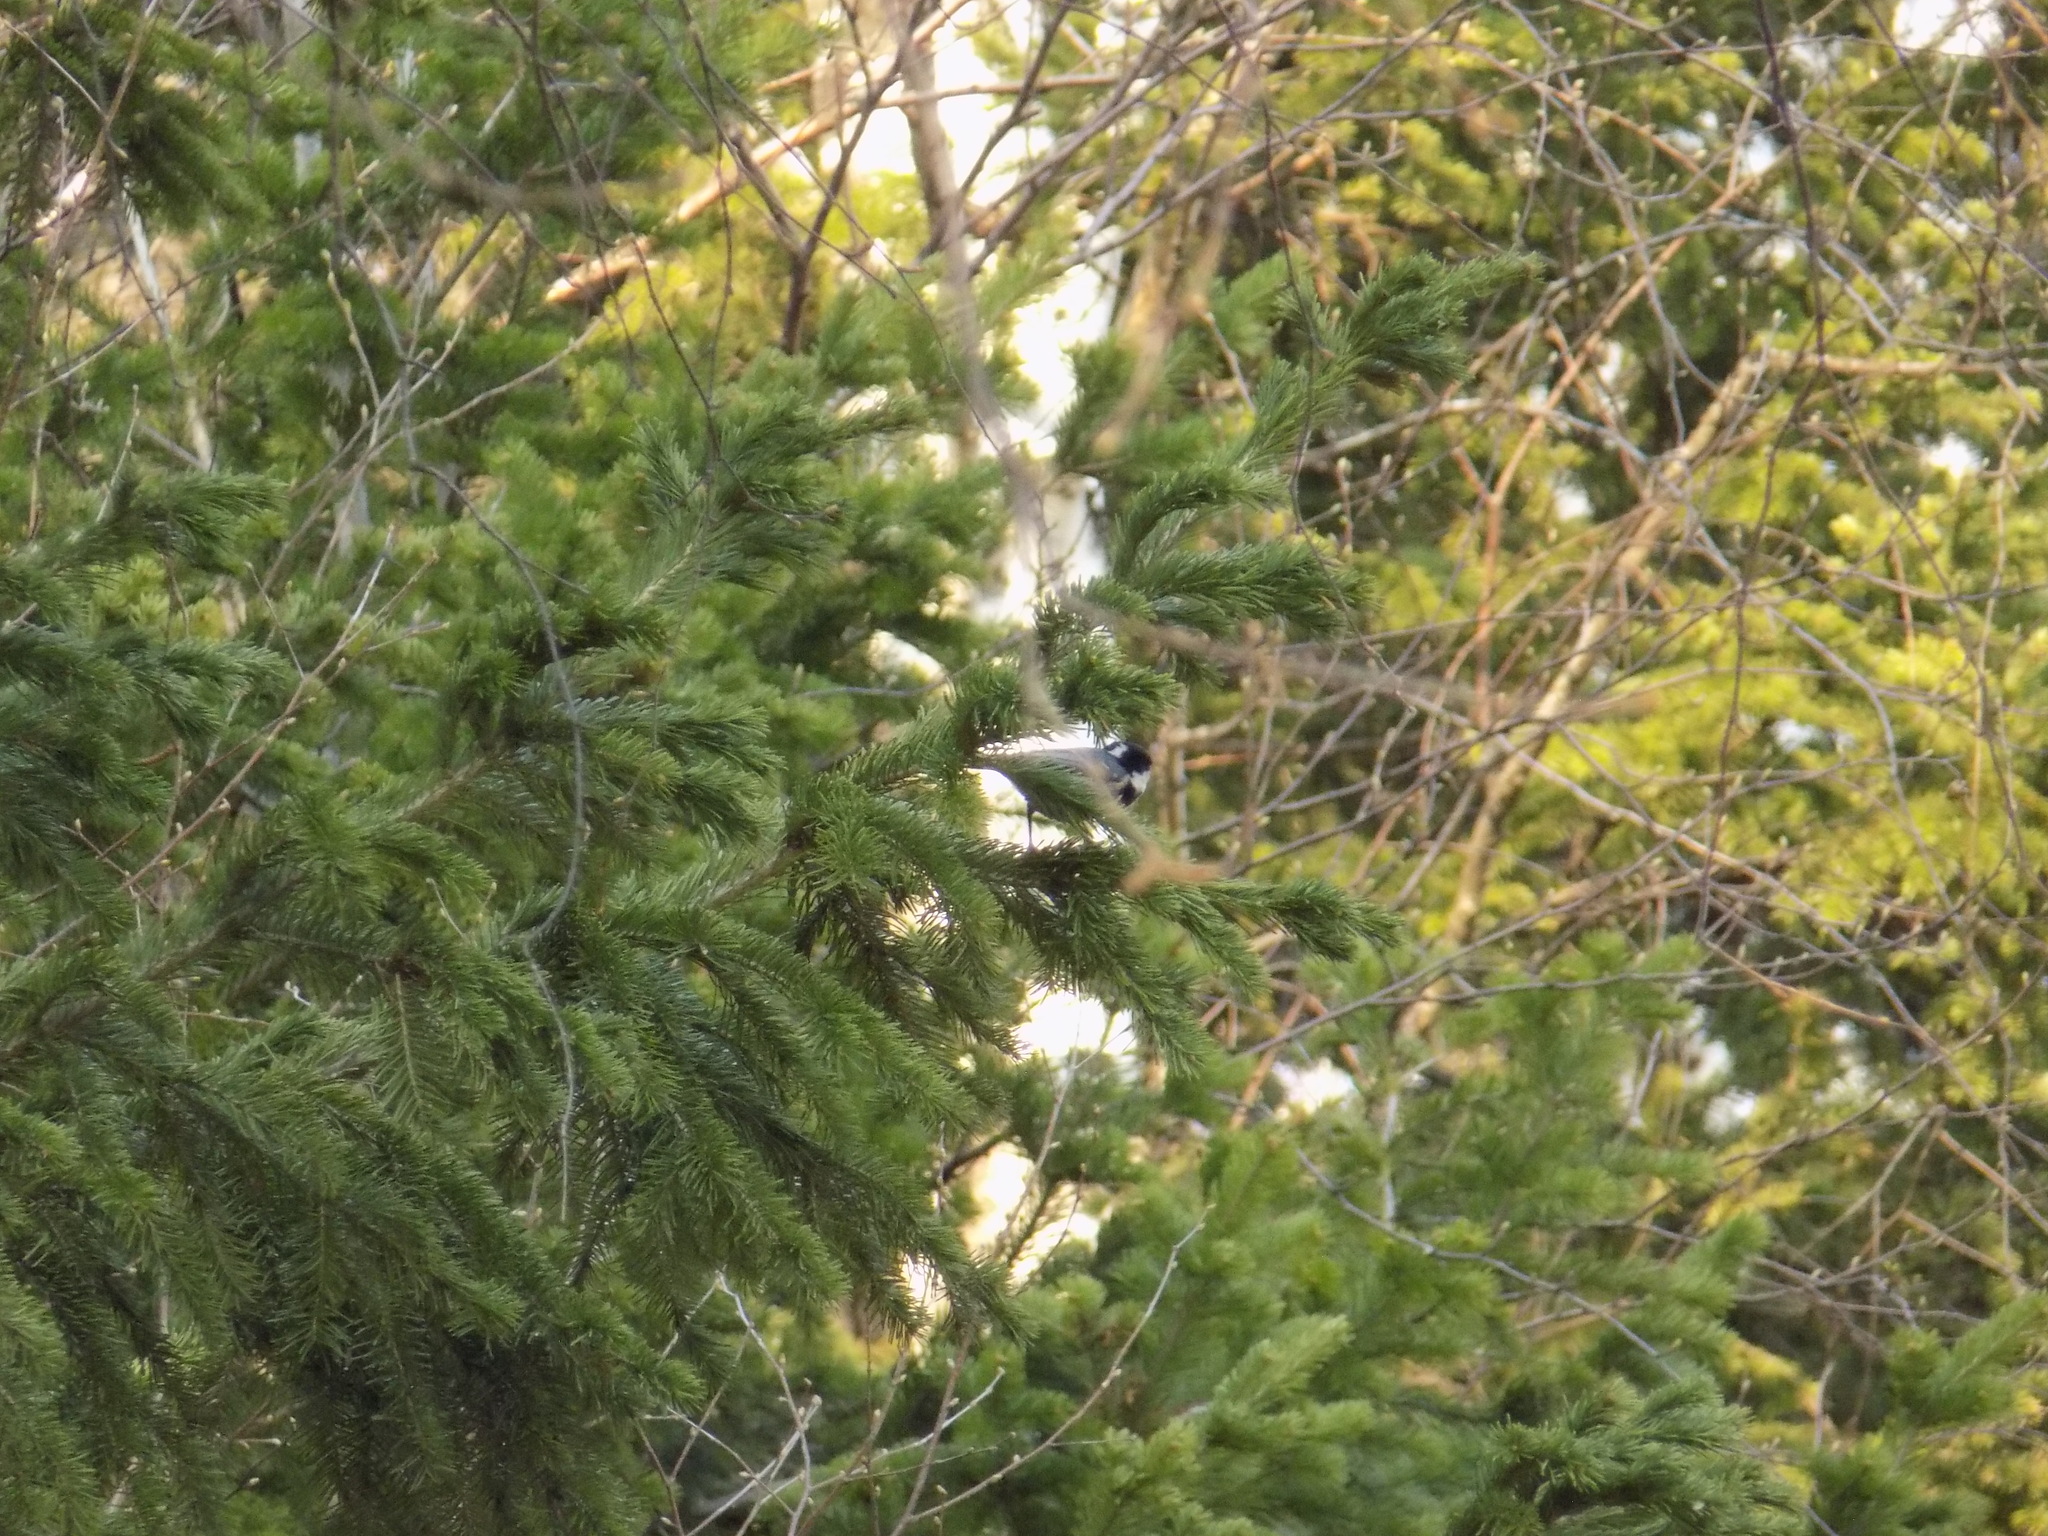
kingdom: Animalia
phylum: Chordata
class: Aves
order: Passeriformes
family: Paridae
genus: Periparus
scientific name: Periparus ater
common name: Coal tit
